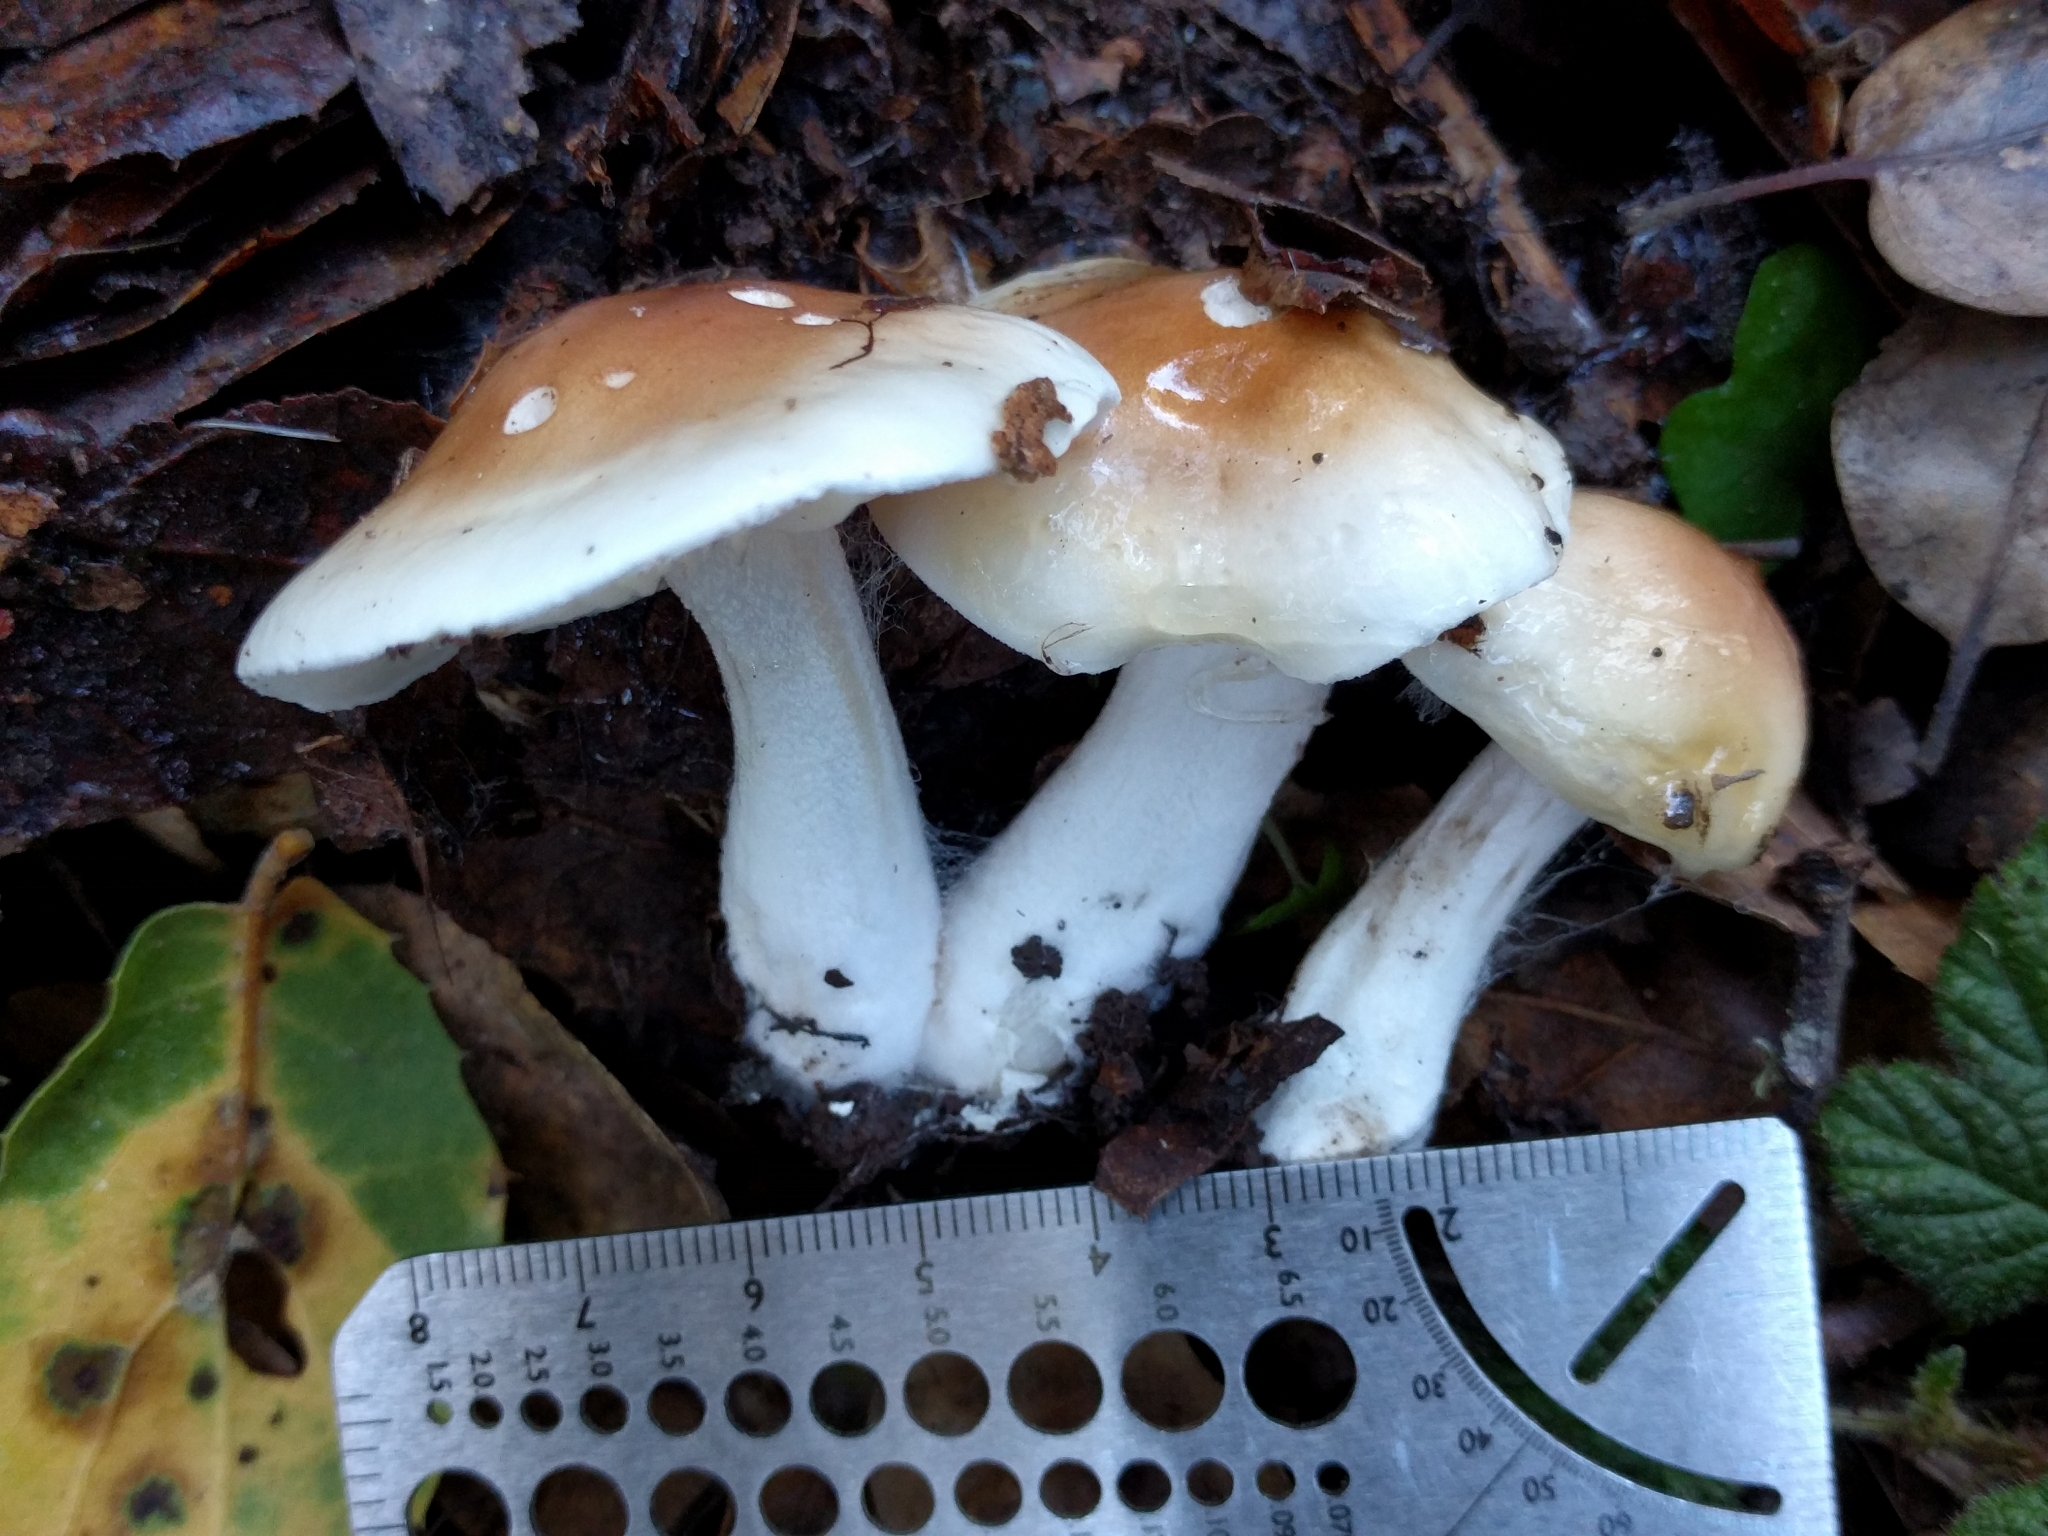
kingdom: Fungi
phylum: Basidiomycota
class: Agaricomycetes
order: Agaricales
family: Hygrophoraceae
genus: Hygrophorus
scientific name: Hygrophorus roseobrunneus
